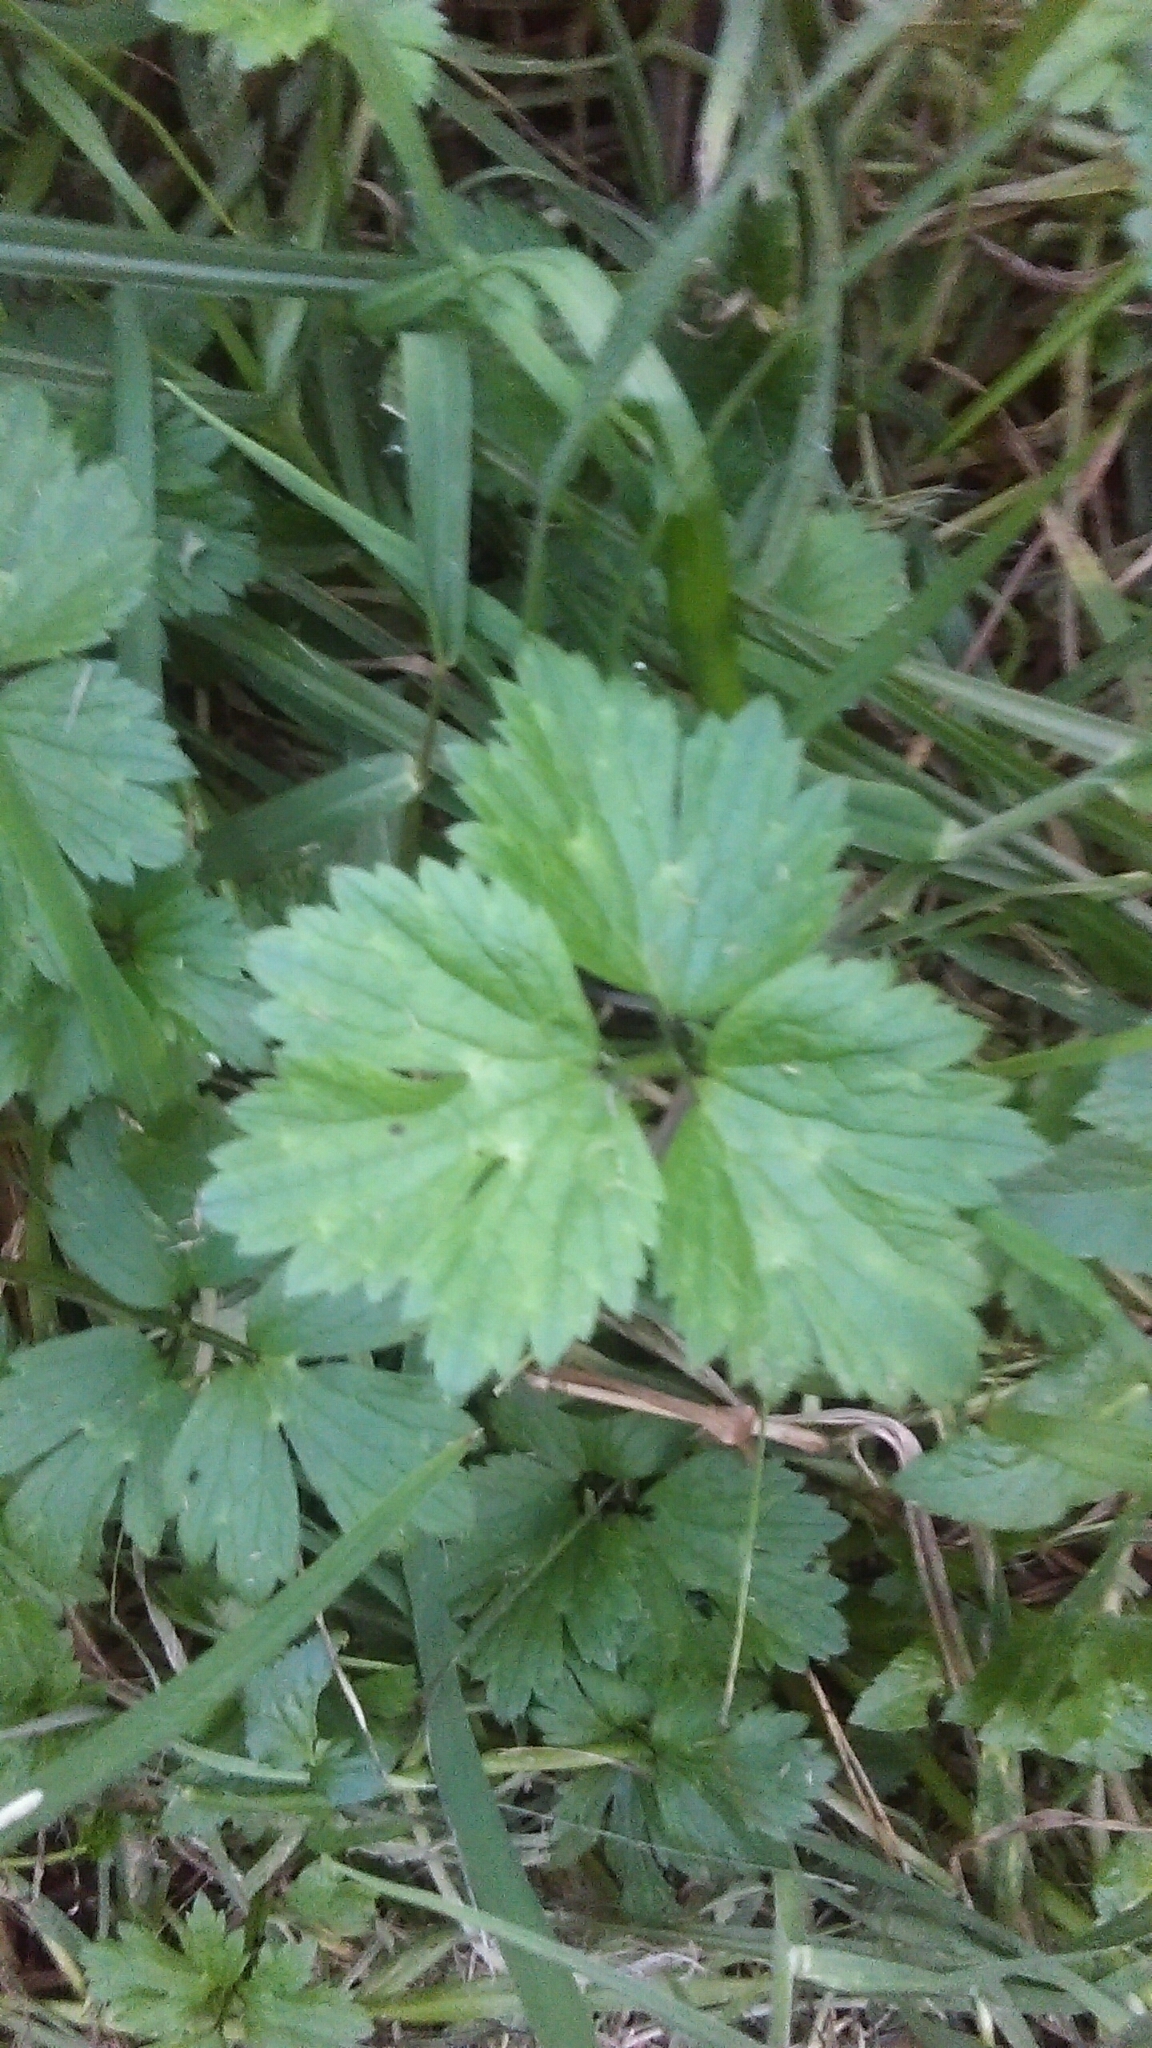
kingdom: Plantae
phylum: Tracheophyta
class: Magnoliopsida
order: Ranunculales
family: Ranunculaceae
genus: Ranunculus
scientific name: Ranunculus repens
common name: Creeping buttercup
